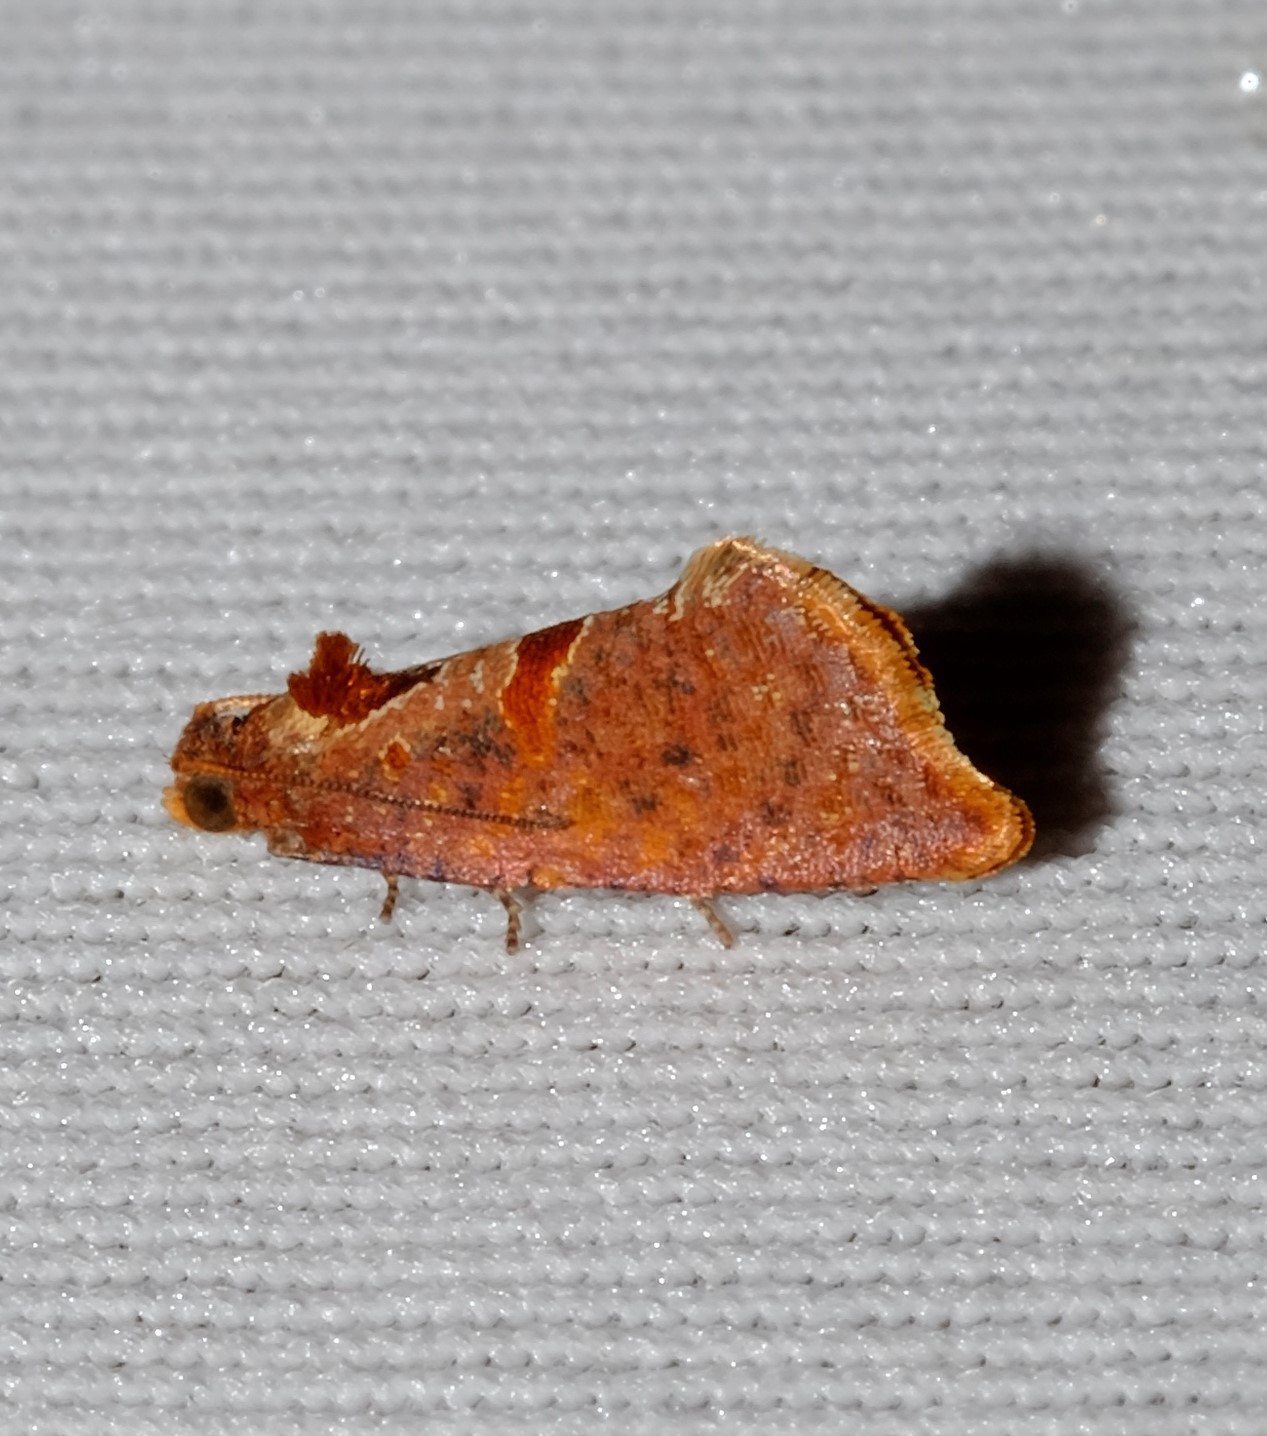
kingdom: Animalia
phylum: Arthropoda
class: Insecta
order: Lepidoptera
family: Tortricidae
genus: Glyphidoptera
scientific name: Glyphidoptera insignana
